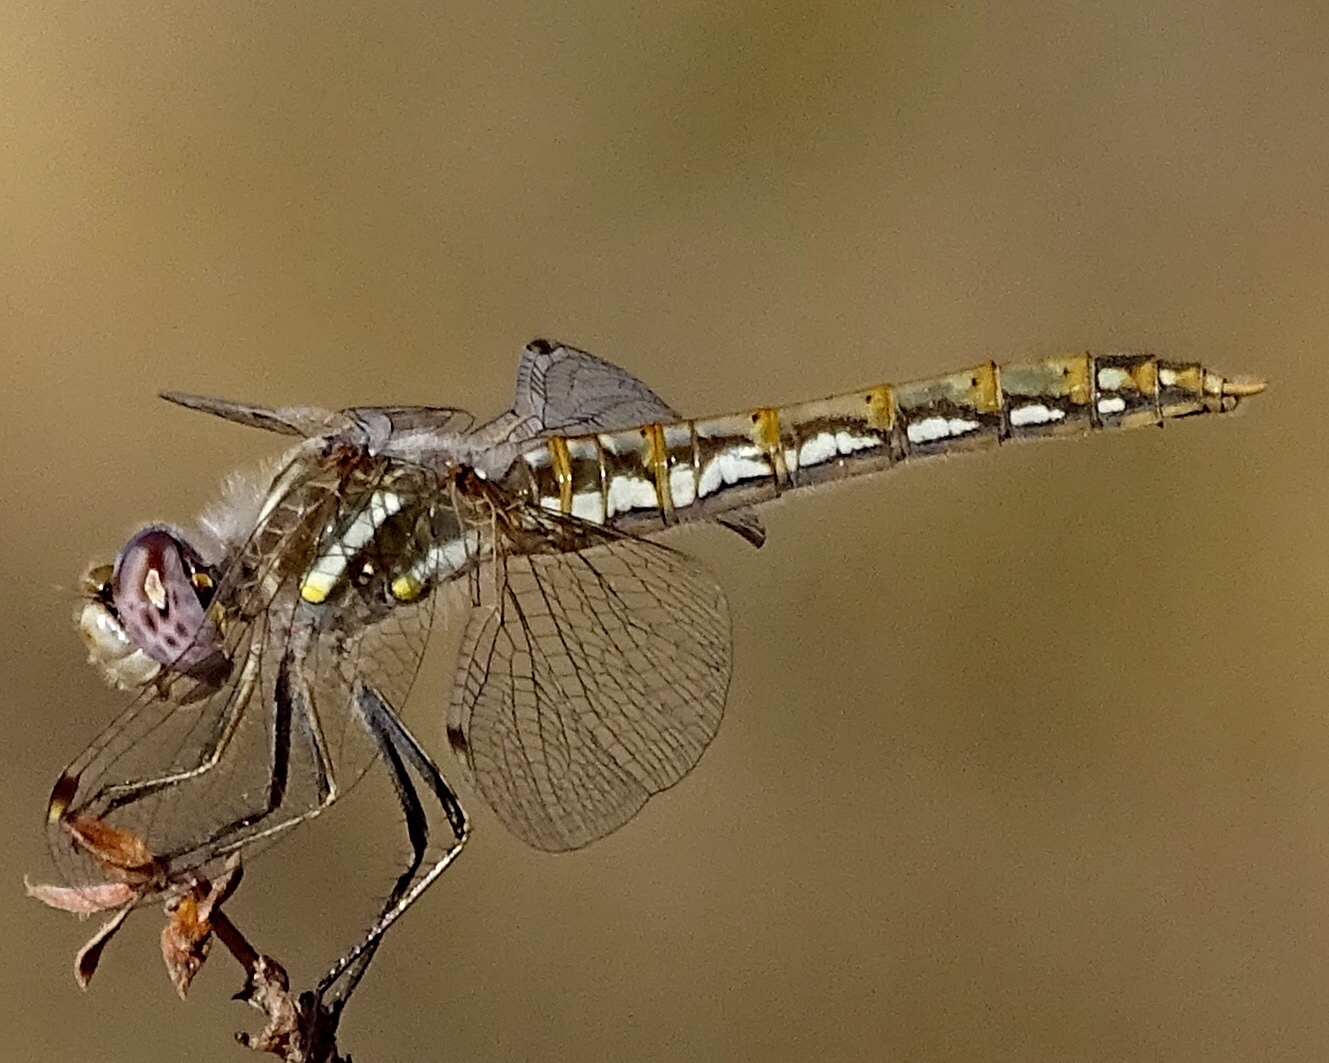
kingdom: Animalia
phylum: Arthropoda
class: Insecta
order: Odonata
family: Libellulidae
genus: Sympetrum
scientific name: Sympetrum corruptum
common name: Variegated meadowhawk
